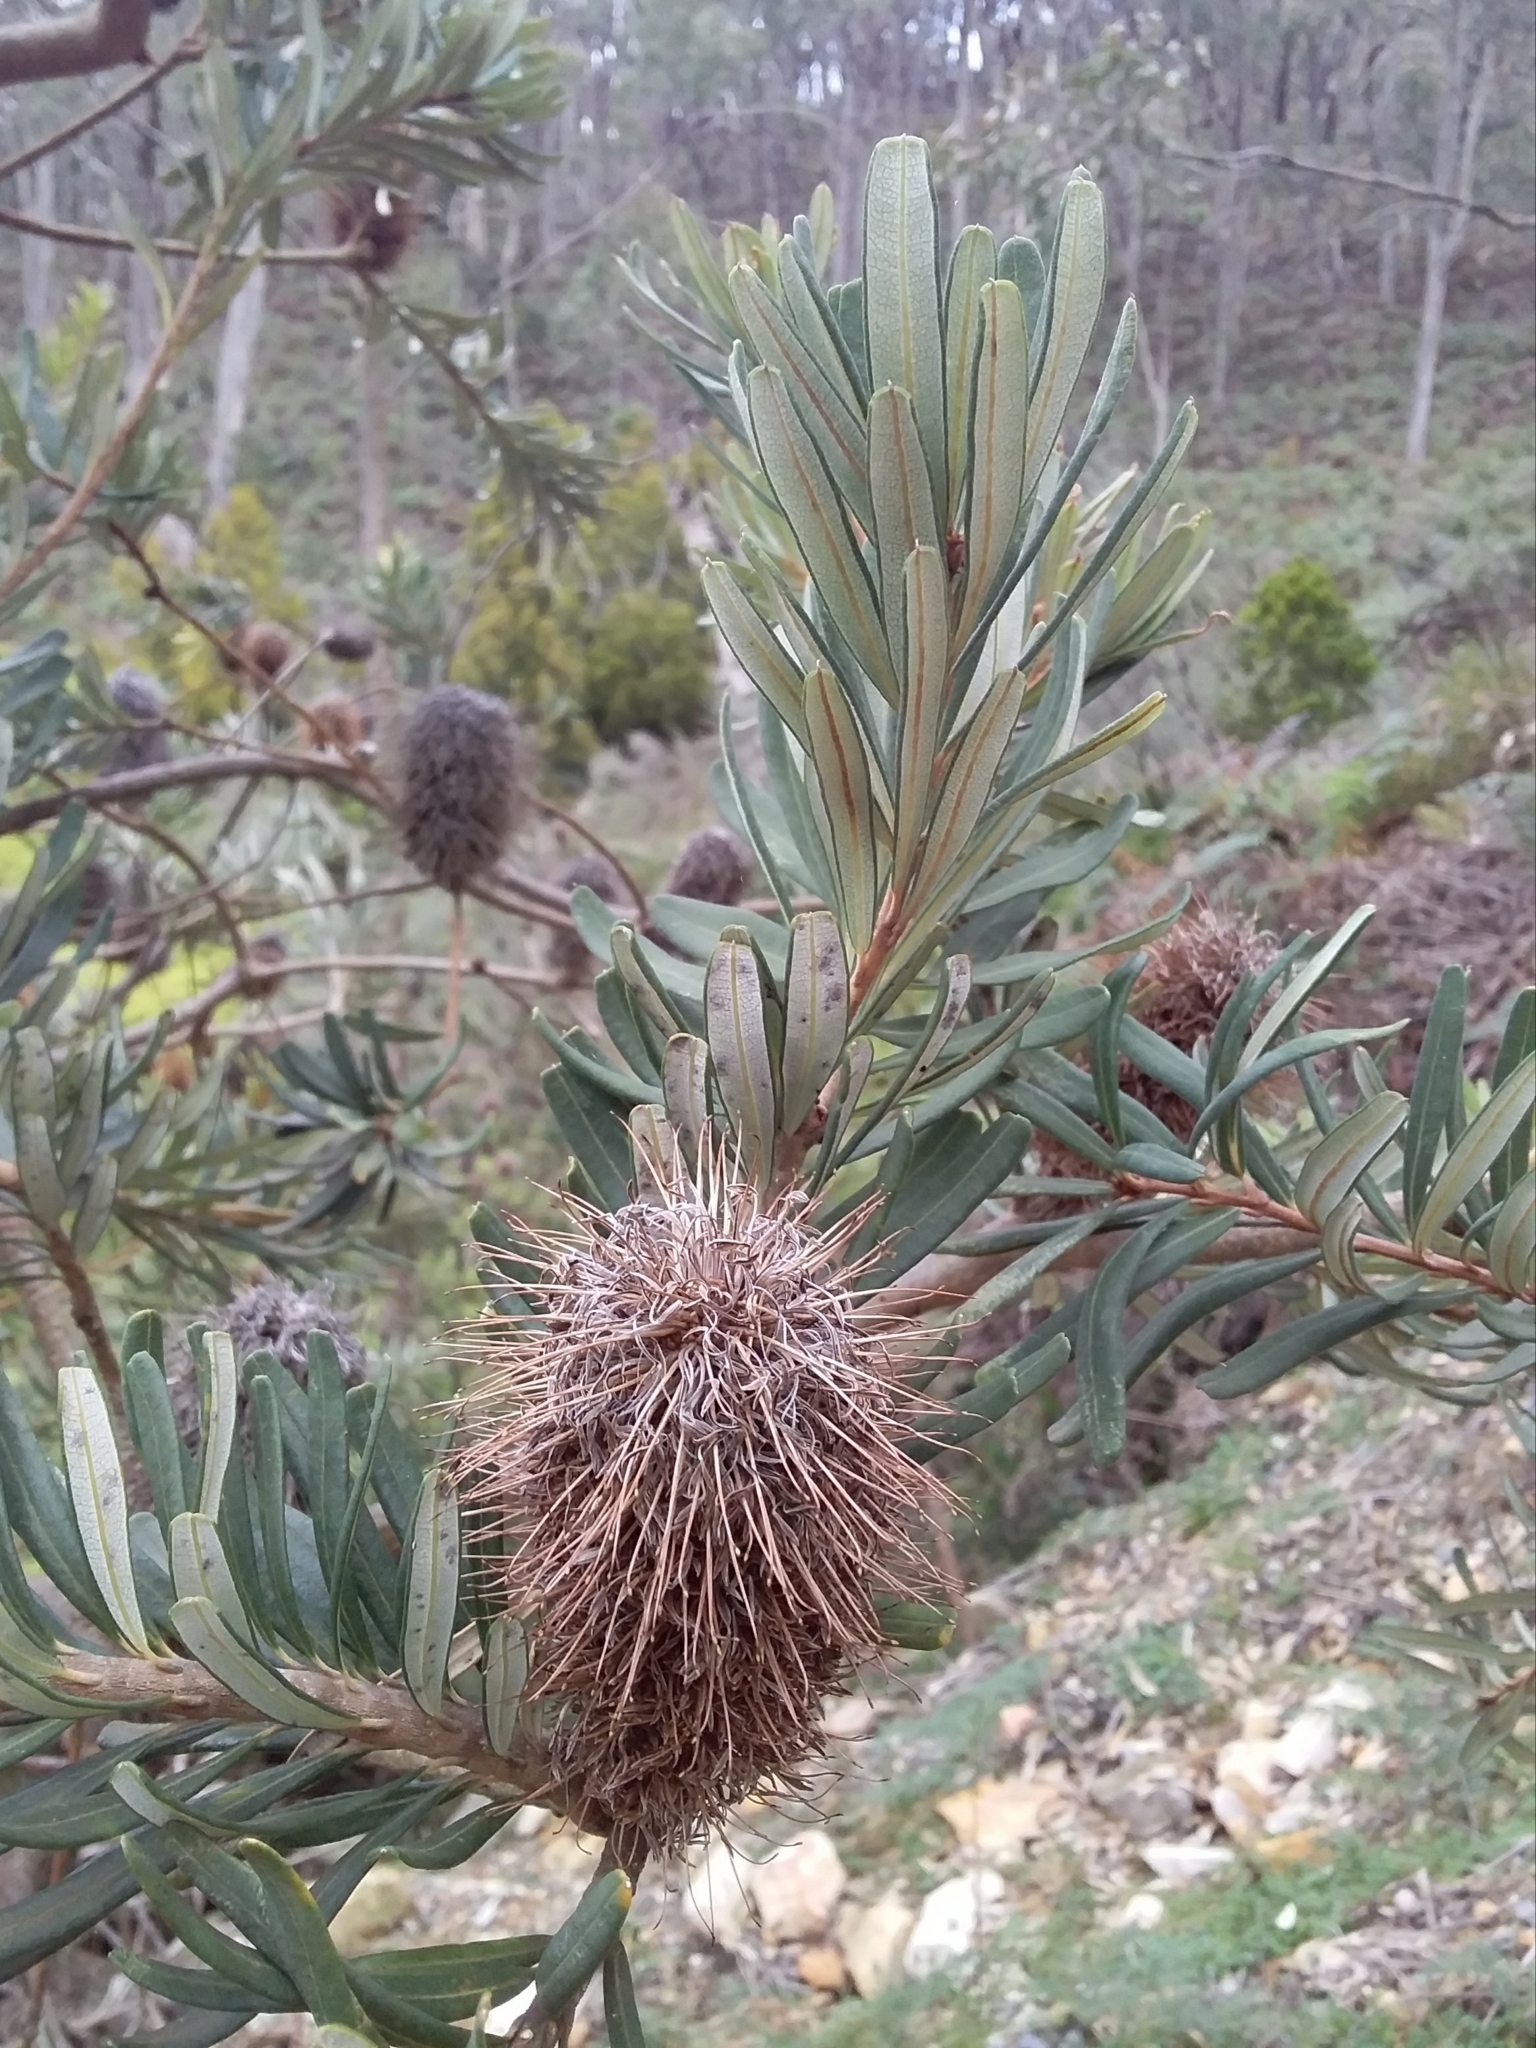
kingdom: Plantae
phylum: Tracheophyta
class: Magnoliopsida
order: Proteales
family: Proteaceae
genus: Banksia
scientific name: Banksia marginata
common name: Silver banksia
